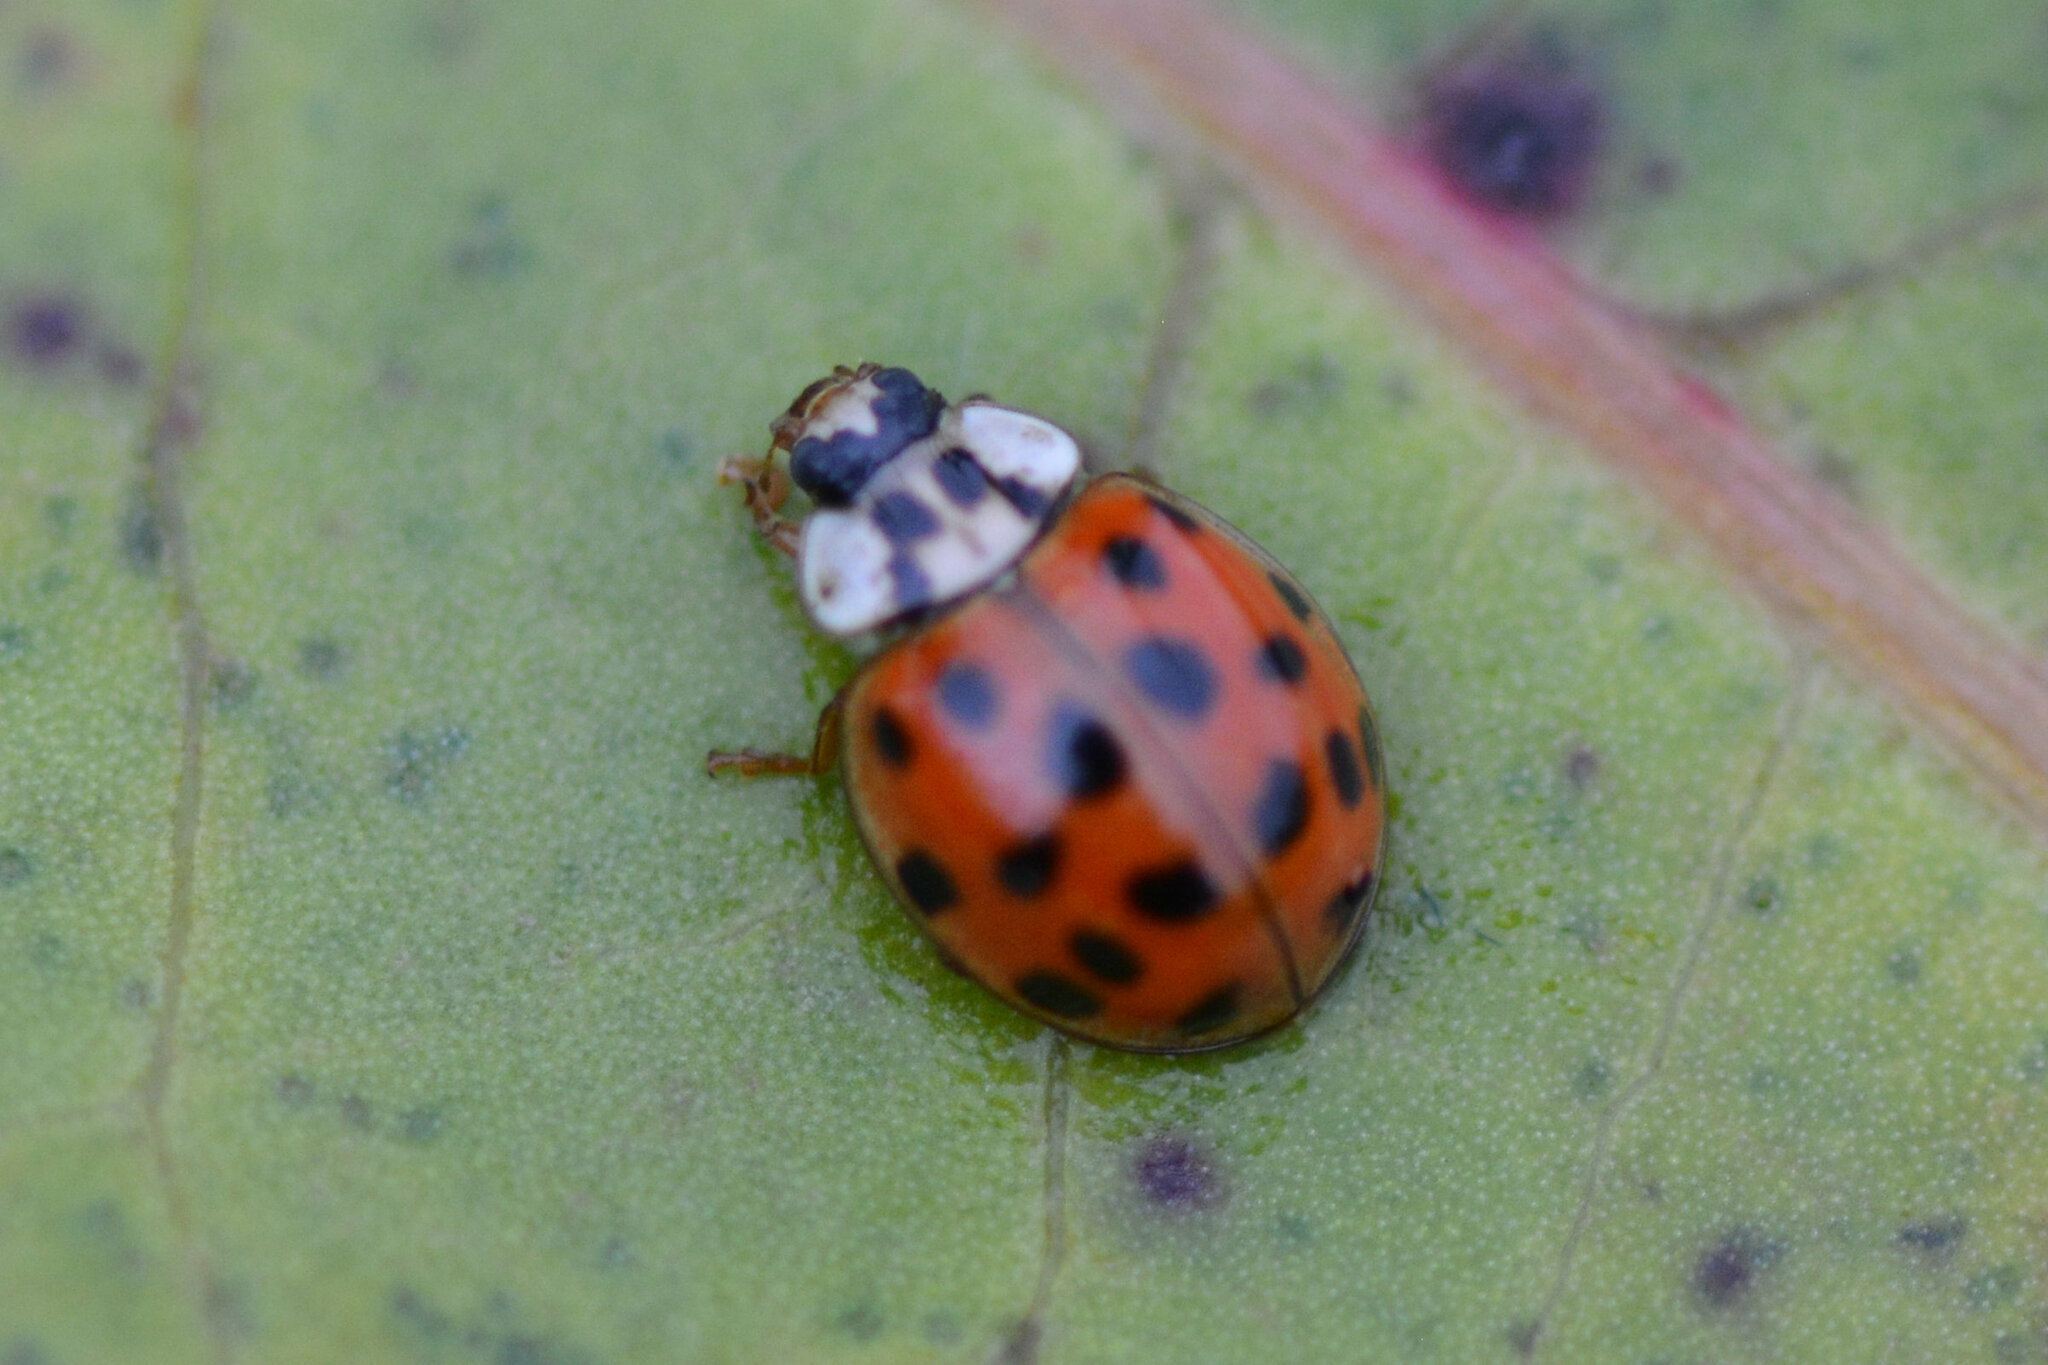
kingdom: Animalia
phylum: Arthropoda
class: Insecta
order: Coleoptera
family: Coccinellidae
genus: Harmonia
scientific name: Harmonia axyridis
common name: Harlequin ladybird
